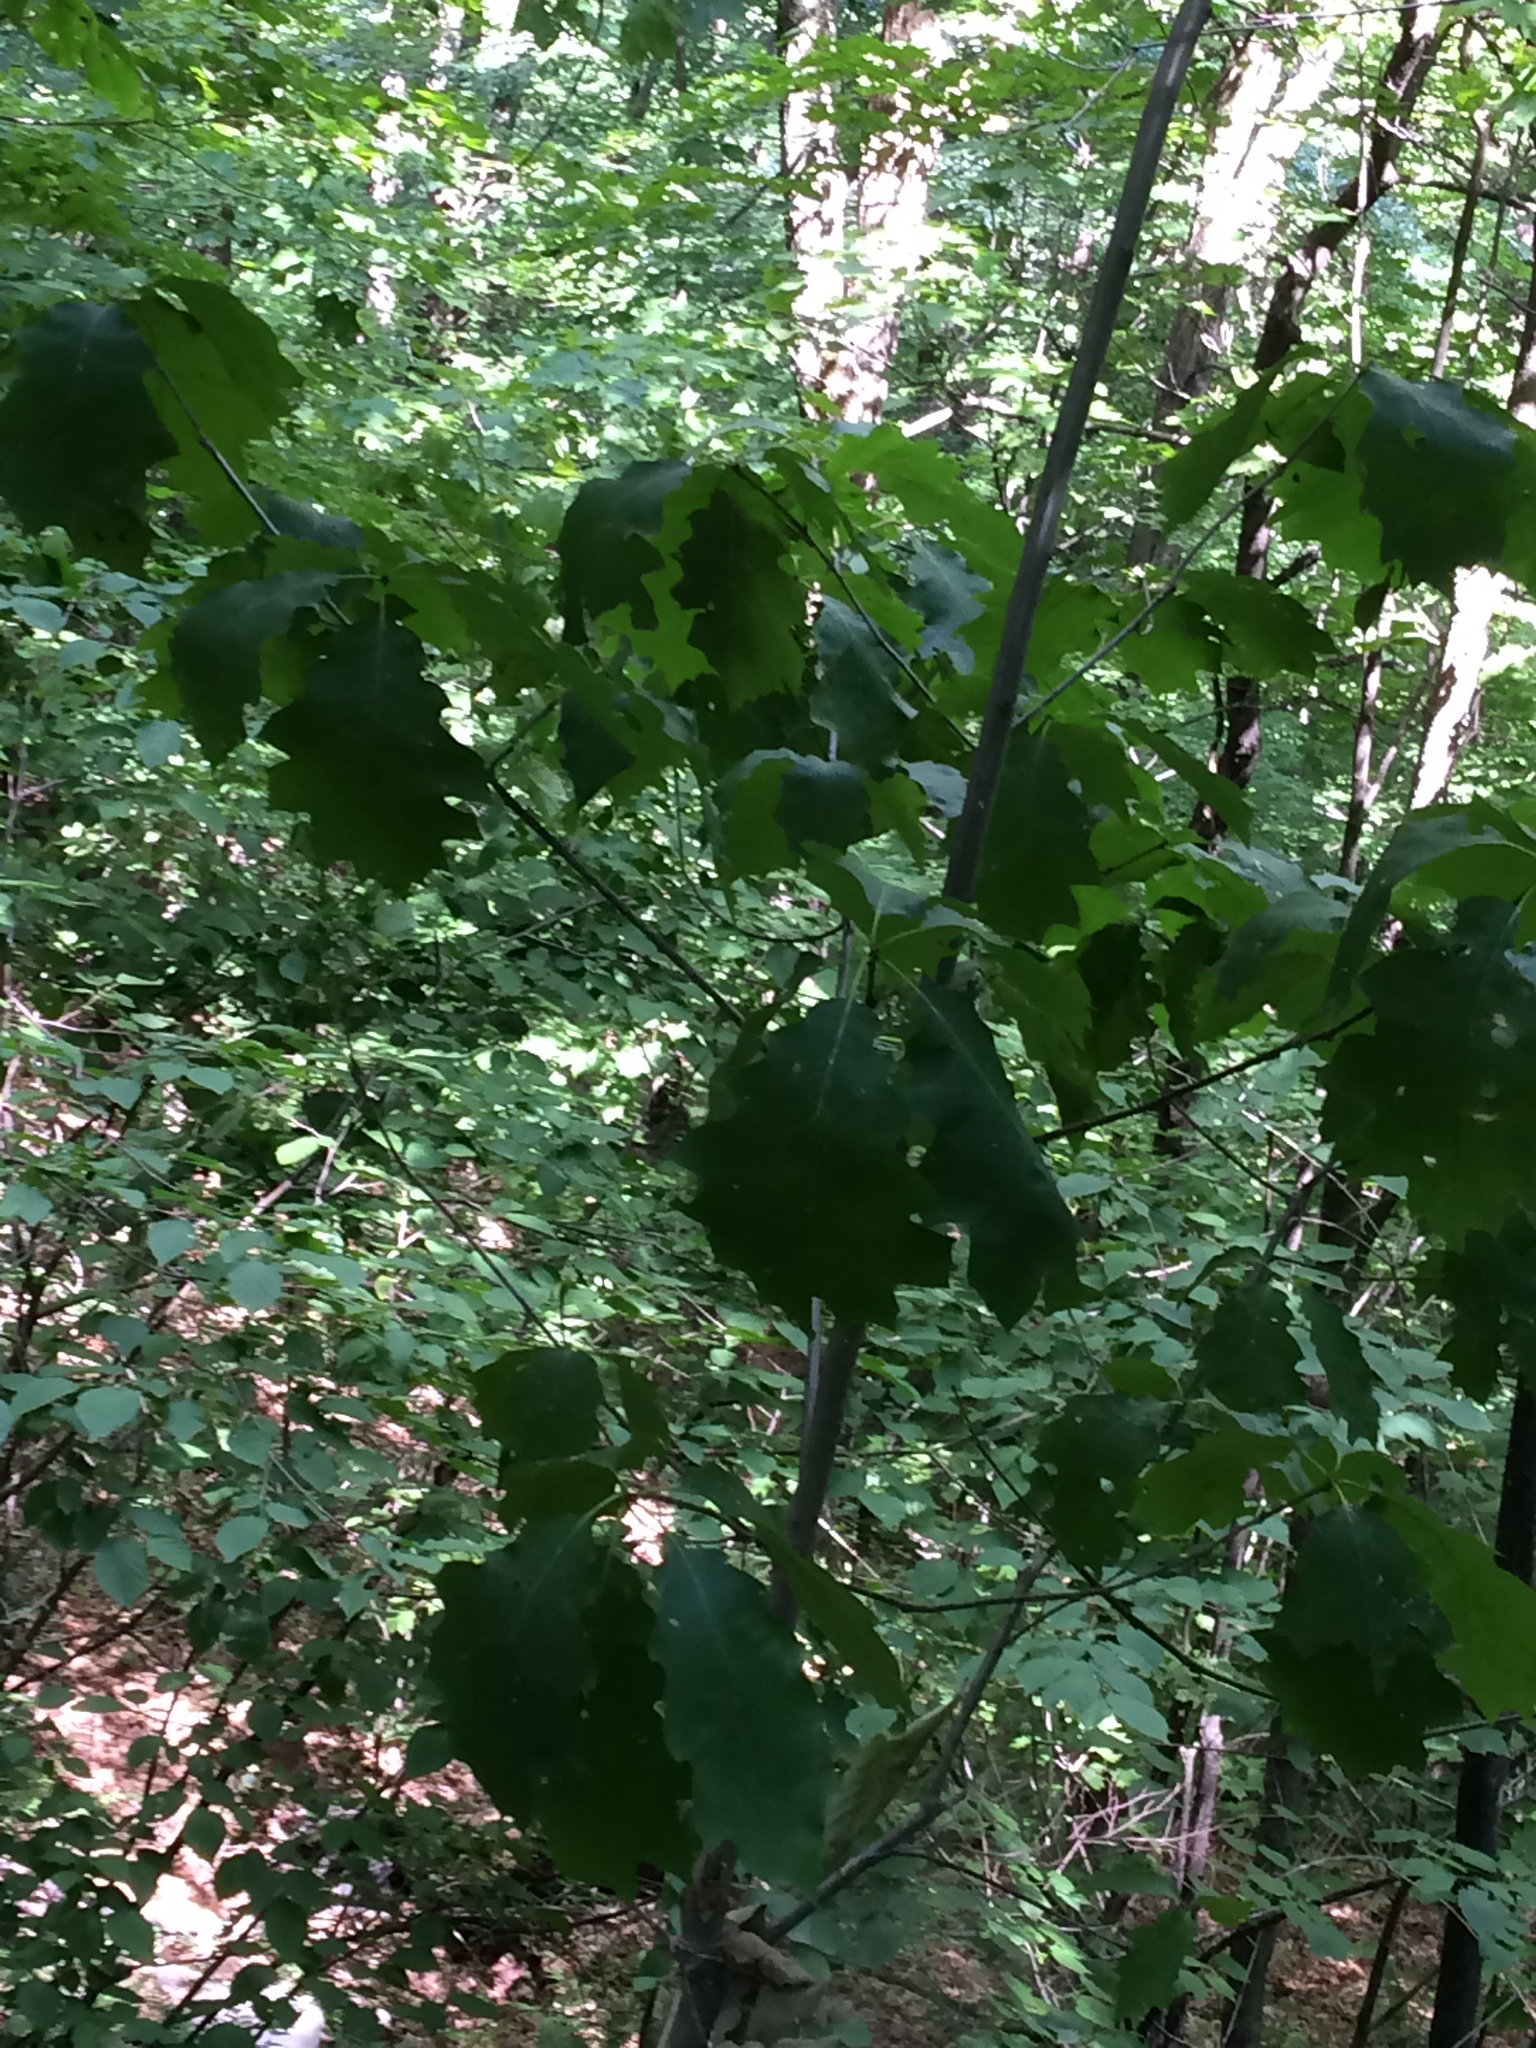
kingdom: Plantae
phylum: Tracheophyta
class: Magnoliopsida
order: Fagales
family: Fagaceae
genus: Quercus
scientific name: Quercus rubra
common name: Red oak
